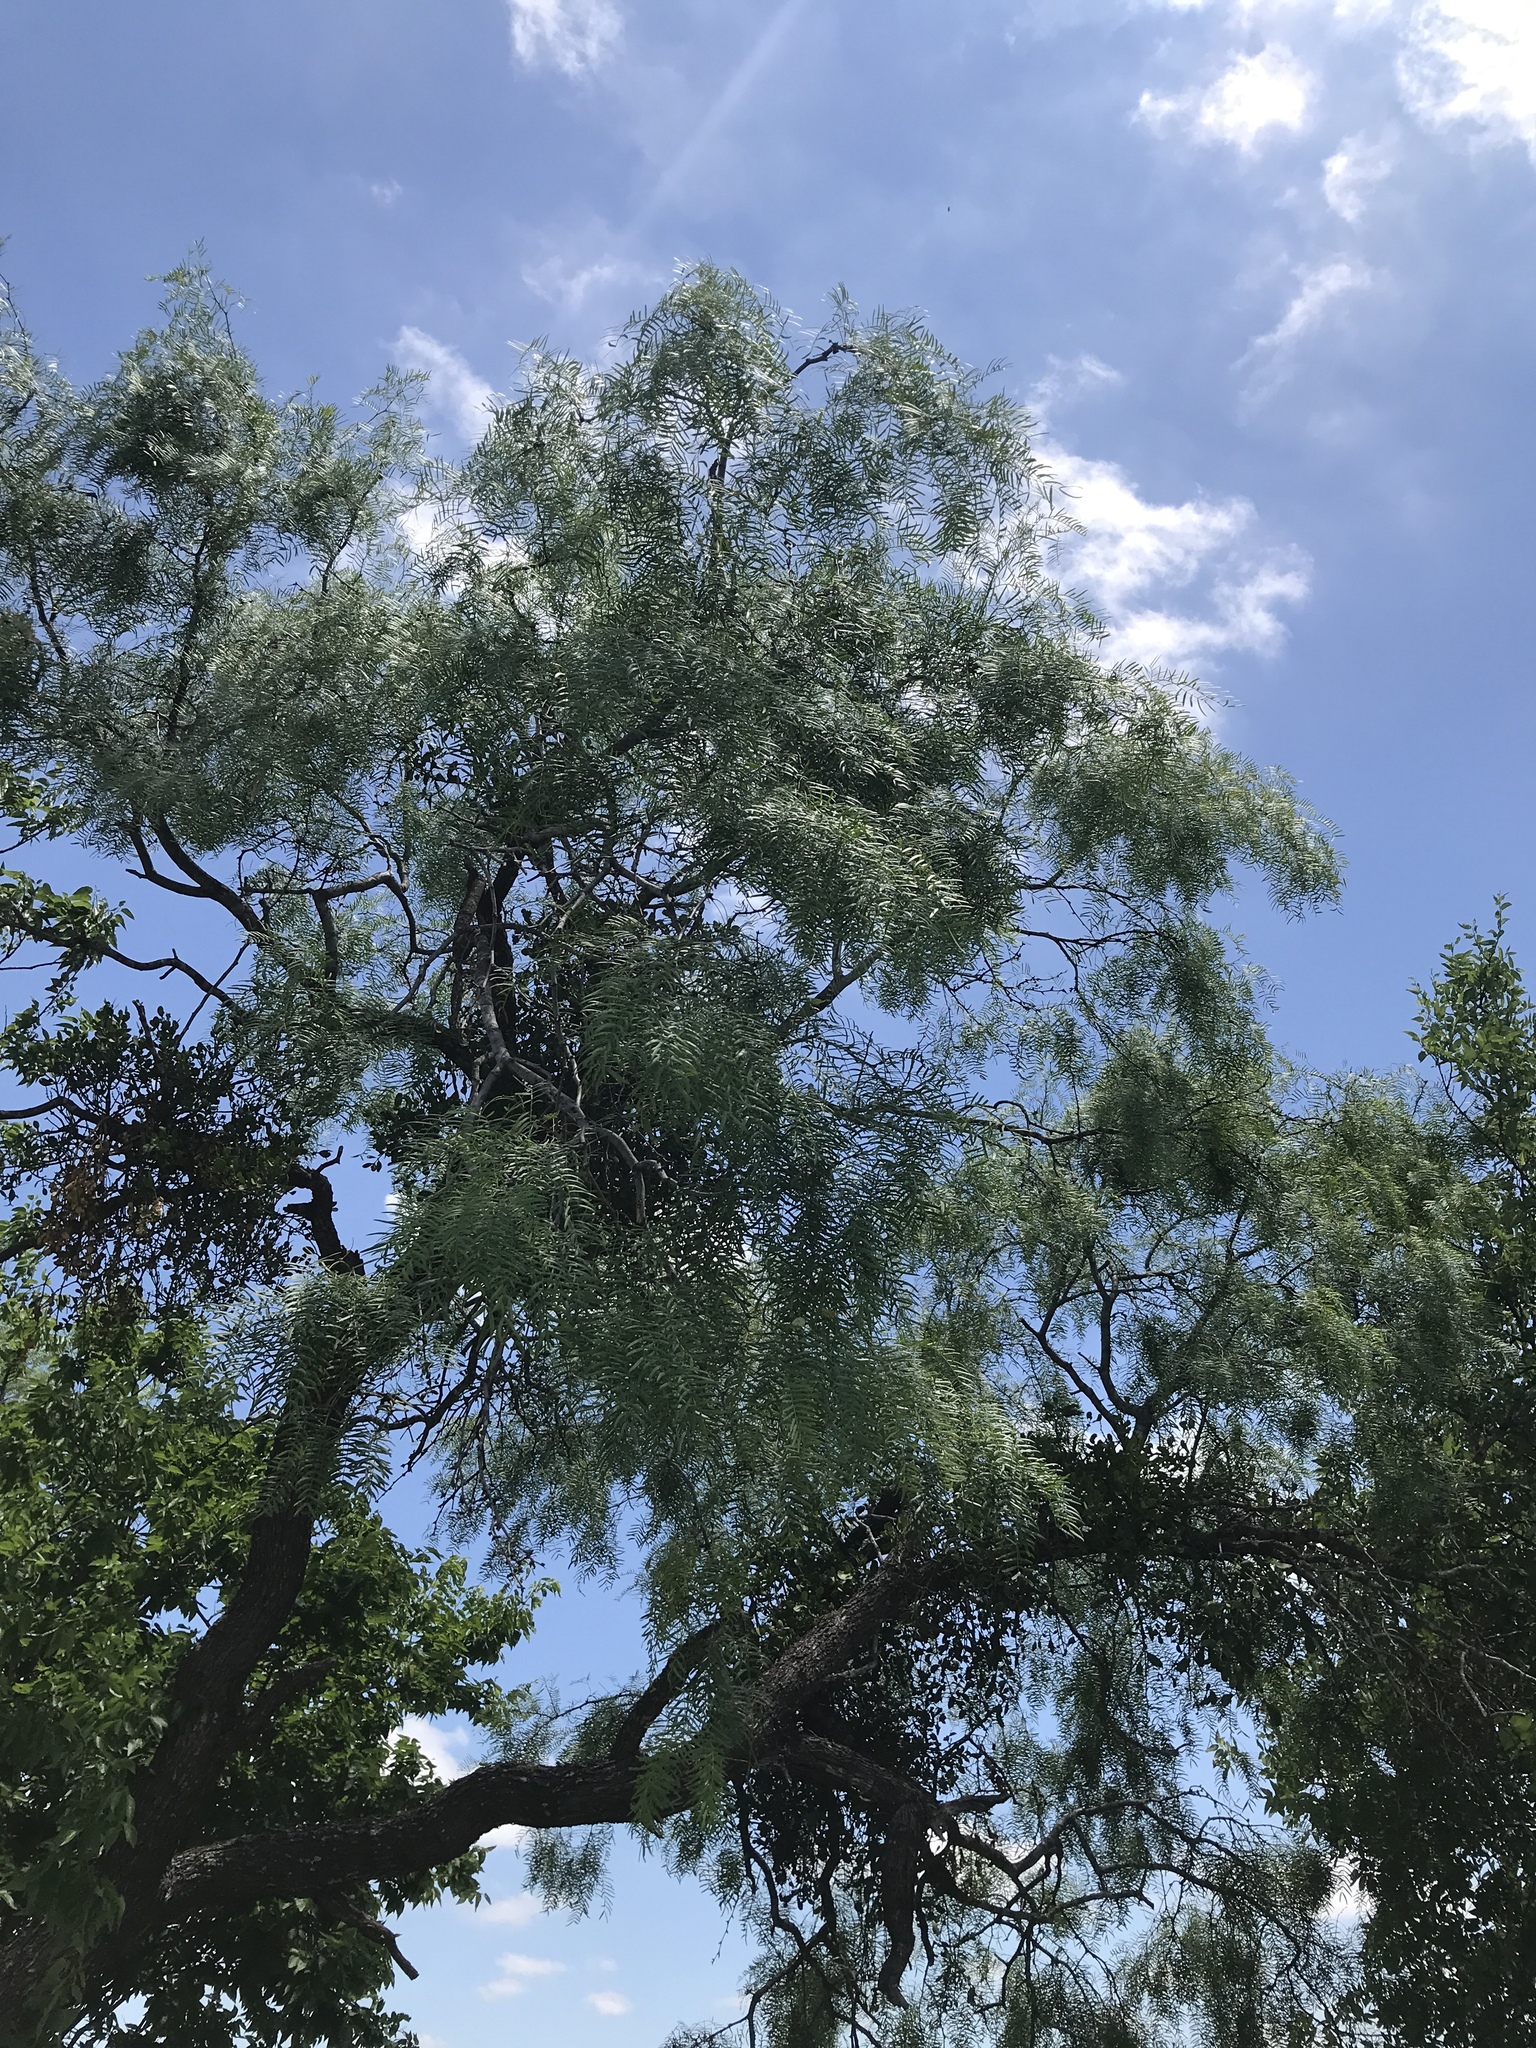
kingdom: Plantae
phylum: Tracheophyta
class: Magnoliopsida
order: Fabales
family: Fabaceae
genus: Prosopis
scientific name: Prosopis glandulosa
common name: Honey mesquite
